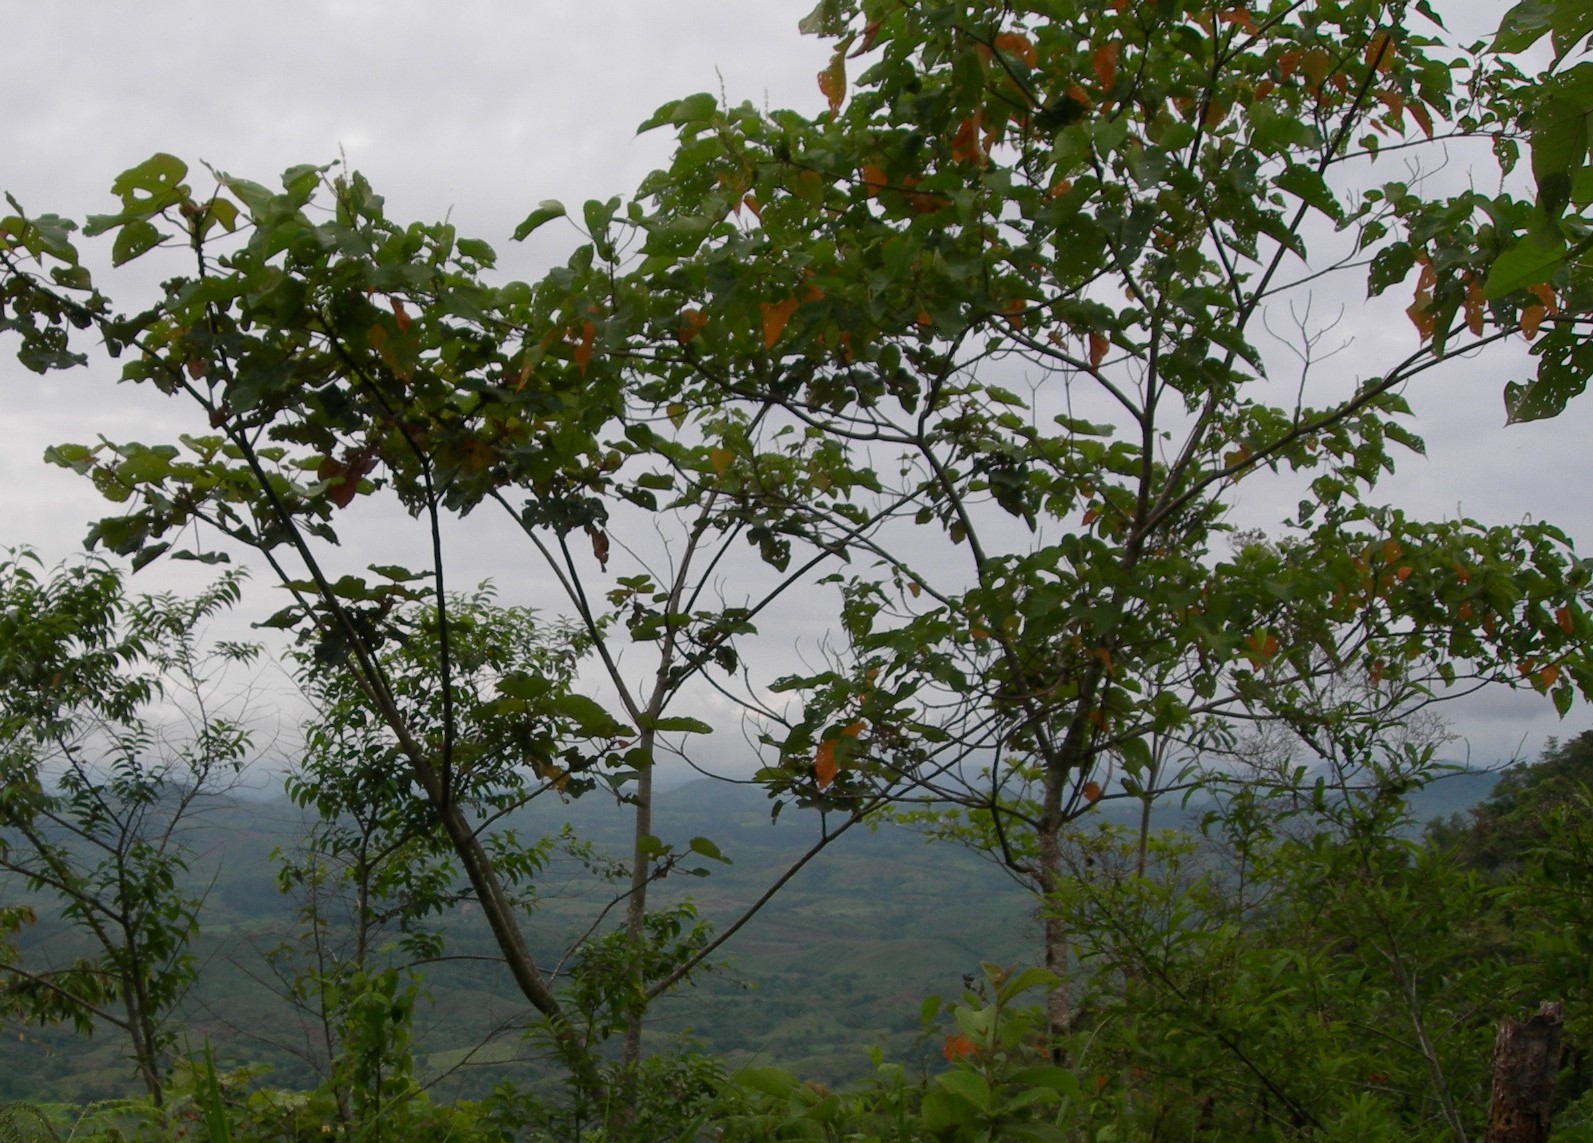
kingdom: Plantae
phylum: Tracheophyta
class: Magnoliopsida
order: Malpighiales
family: Euphorbiaceae
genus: Croton
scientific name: Croton draco
